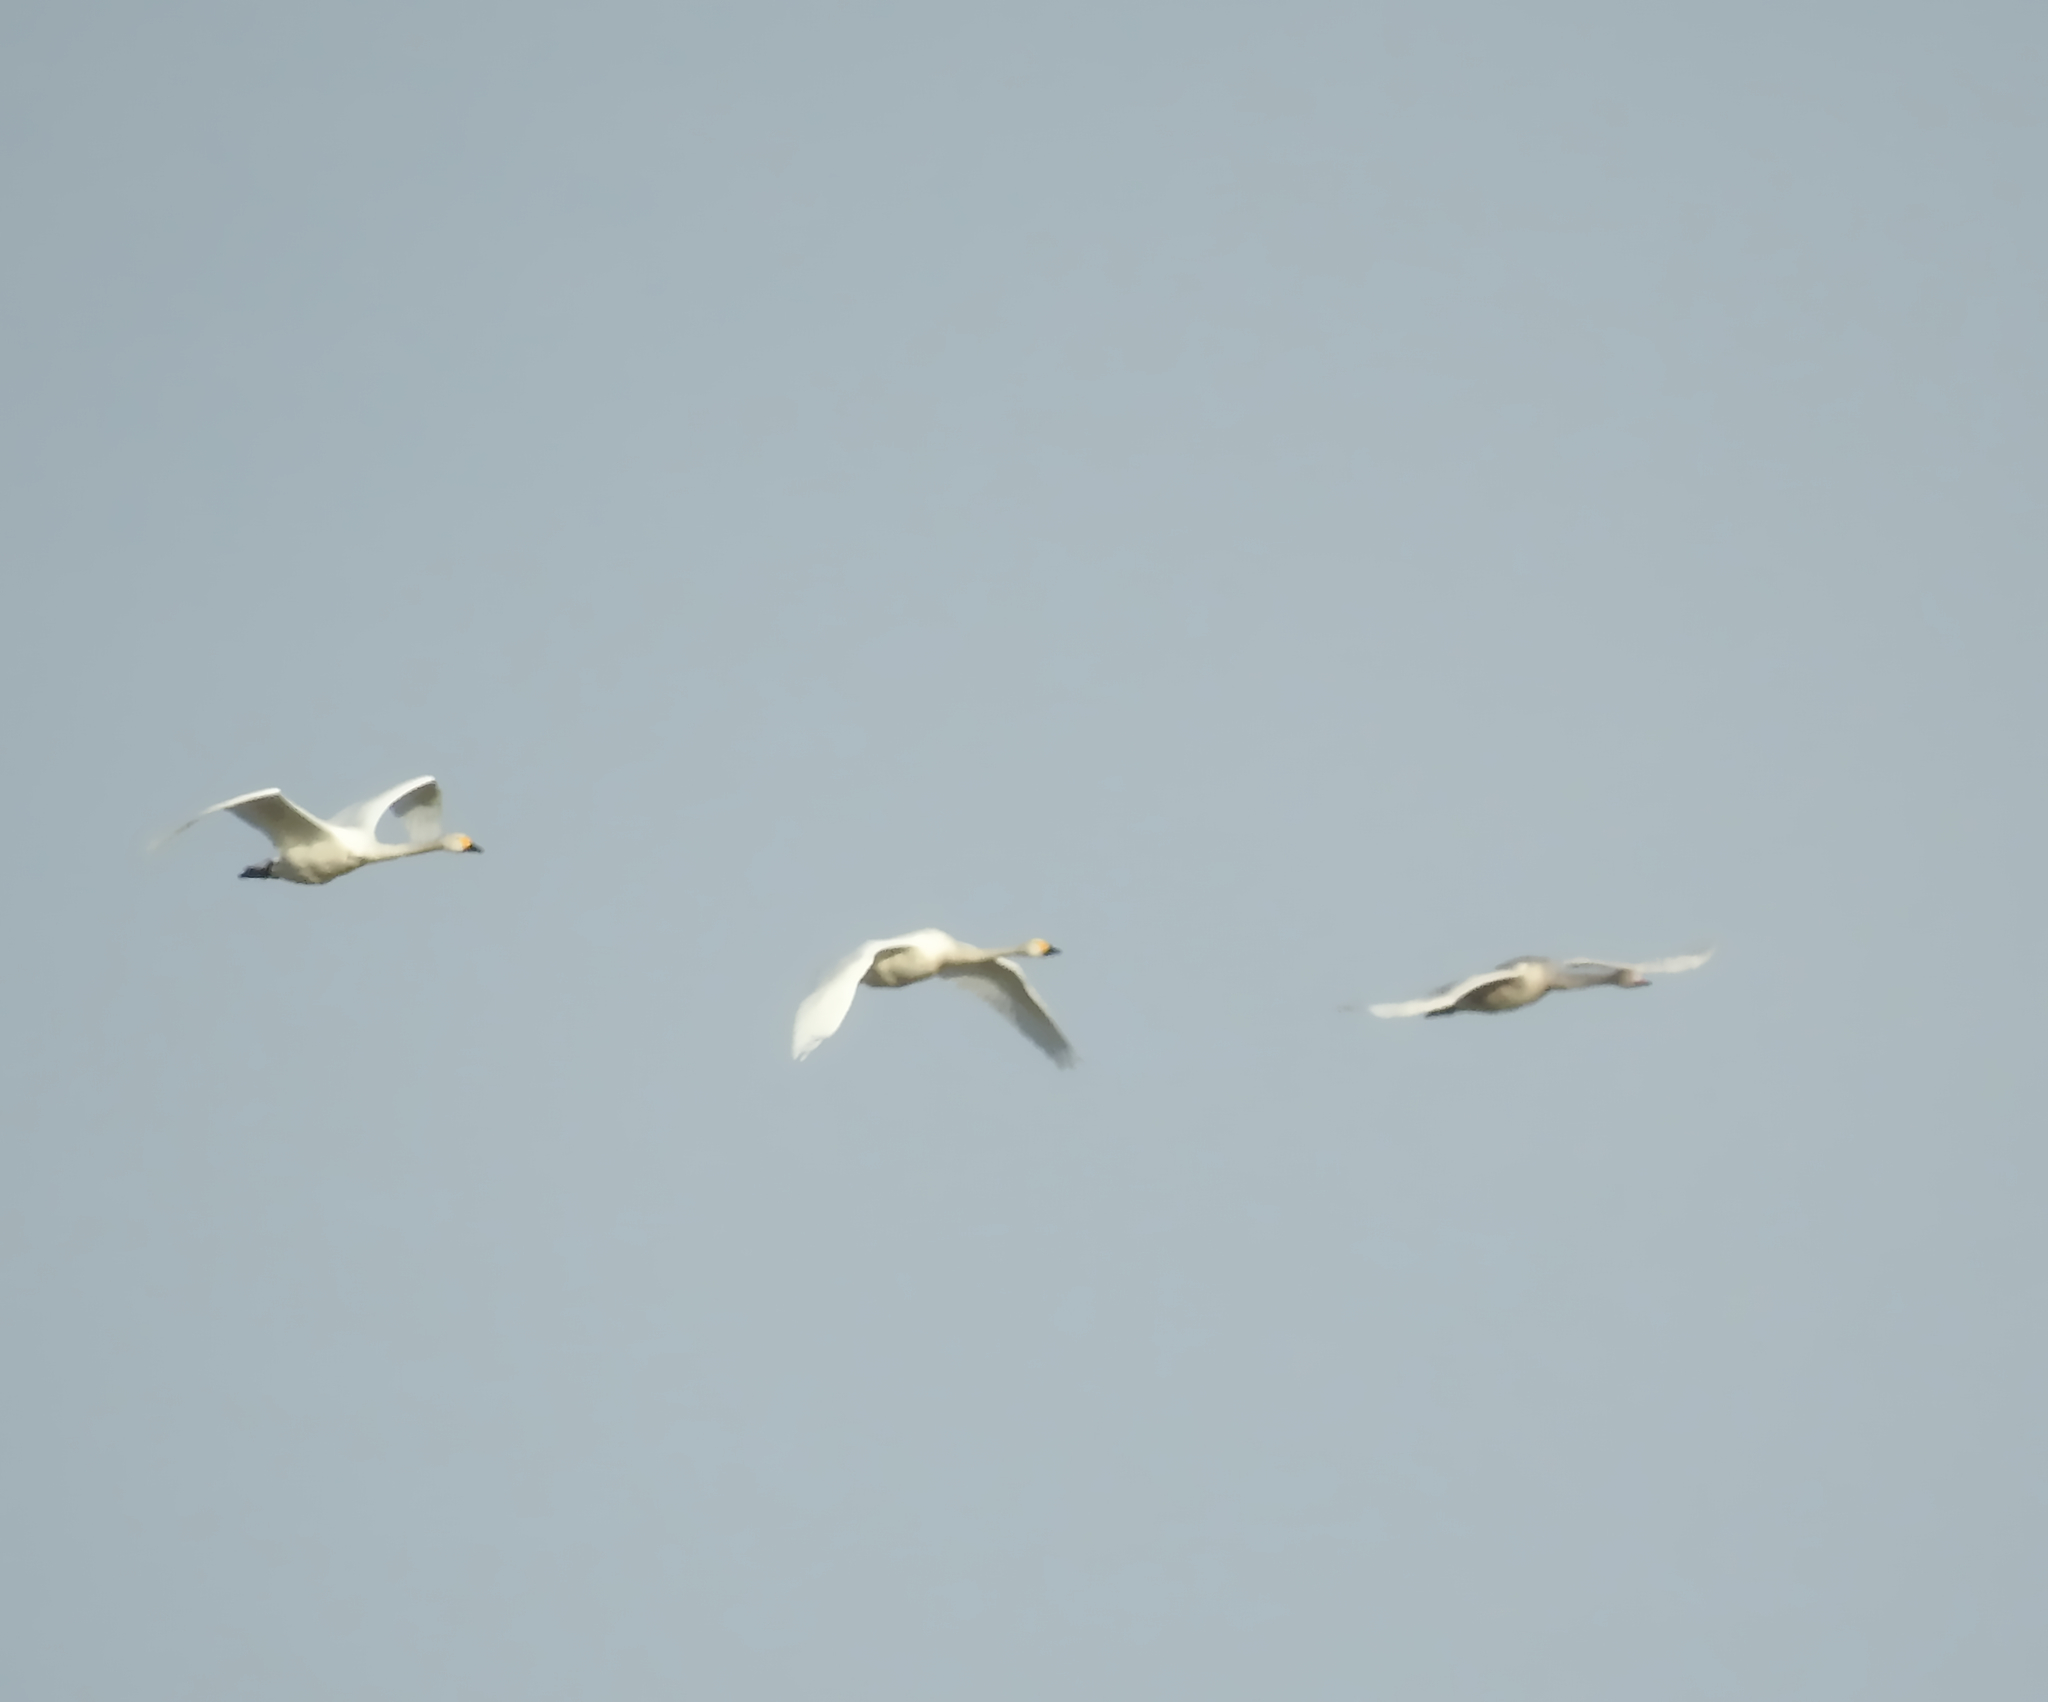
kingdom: Animalia
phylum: Chordata
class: Aves
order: Anseriformes
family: Anatidae
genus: Cygnus
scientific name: Cygnus columbianus
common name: Tundra swan
